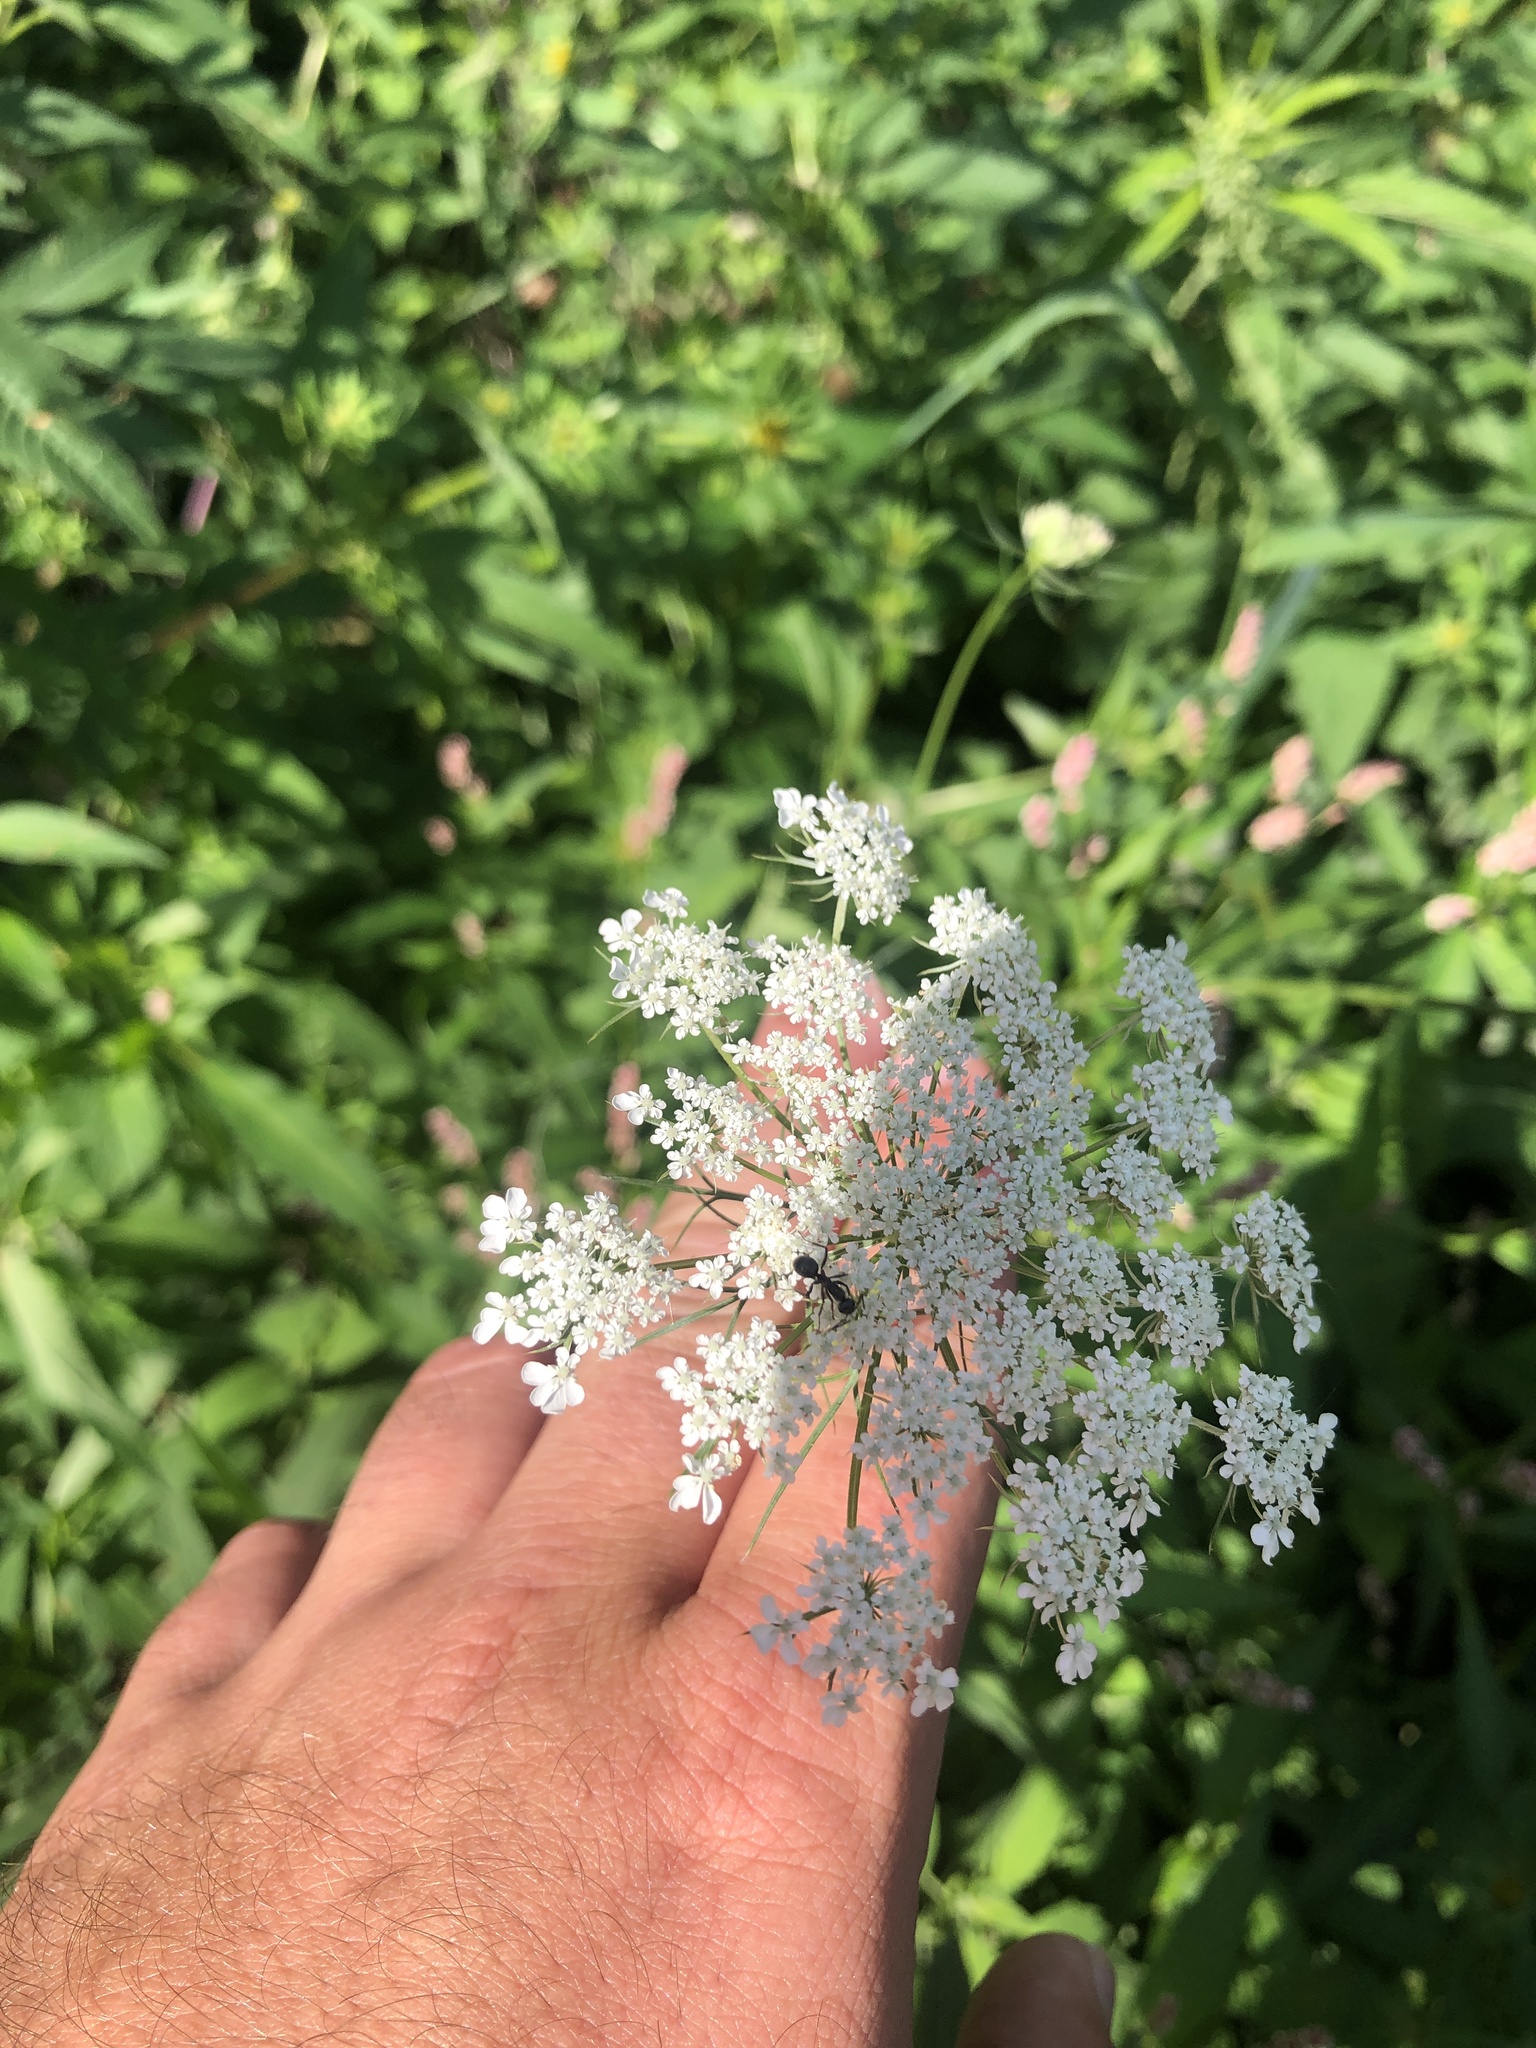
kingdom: Plantae
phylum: Tracheophyta
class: Magnoliopsida
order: Apiales
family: Apiaceae
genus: Daucus
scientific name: Daucus carota
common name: Wild carrot
